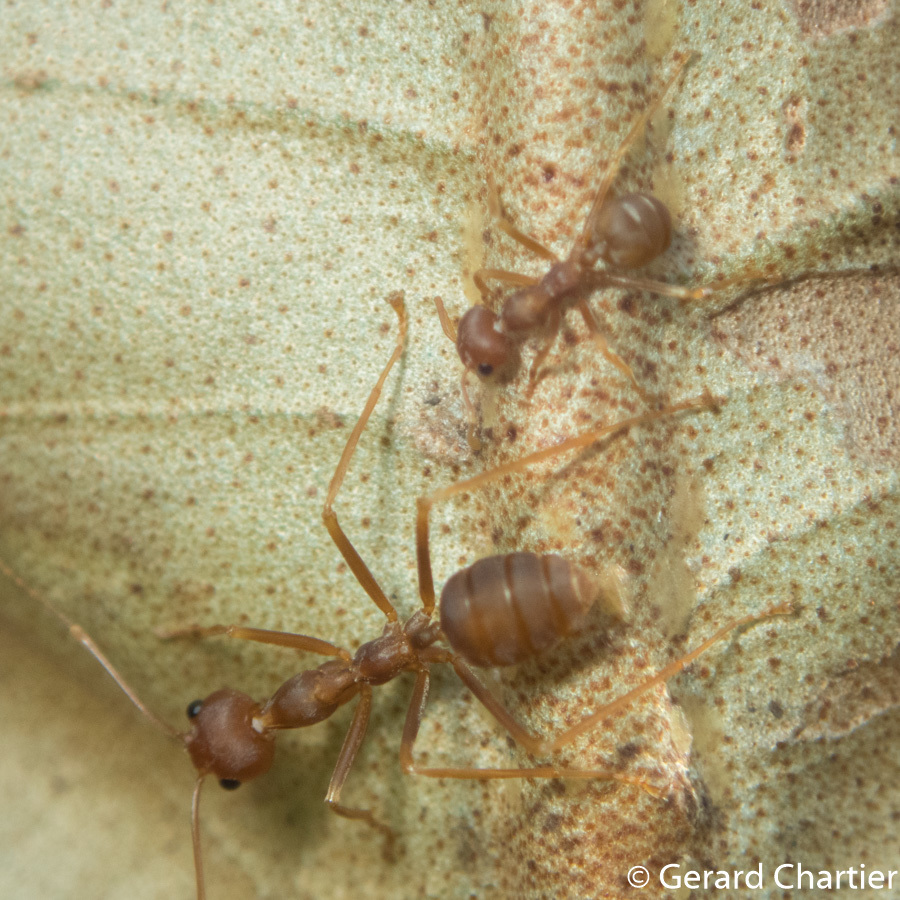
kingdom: Animalia
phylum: Arthropoda
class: Insecta
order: Hymenoptera
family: Formicidae
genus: Oecophylla
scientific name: Oecophylla smaragdina
